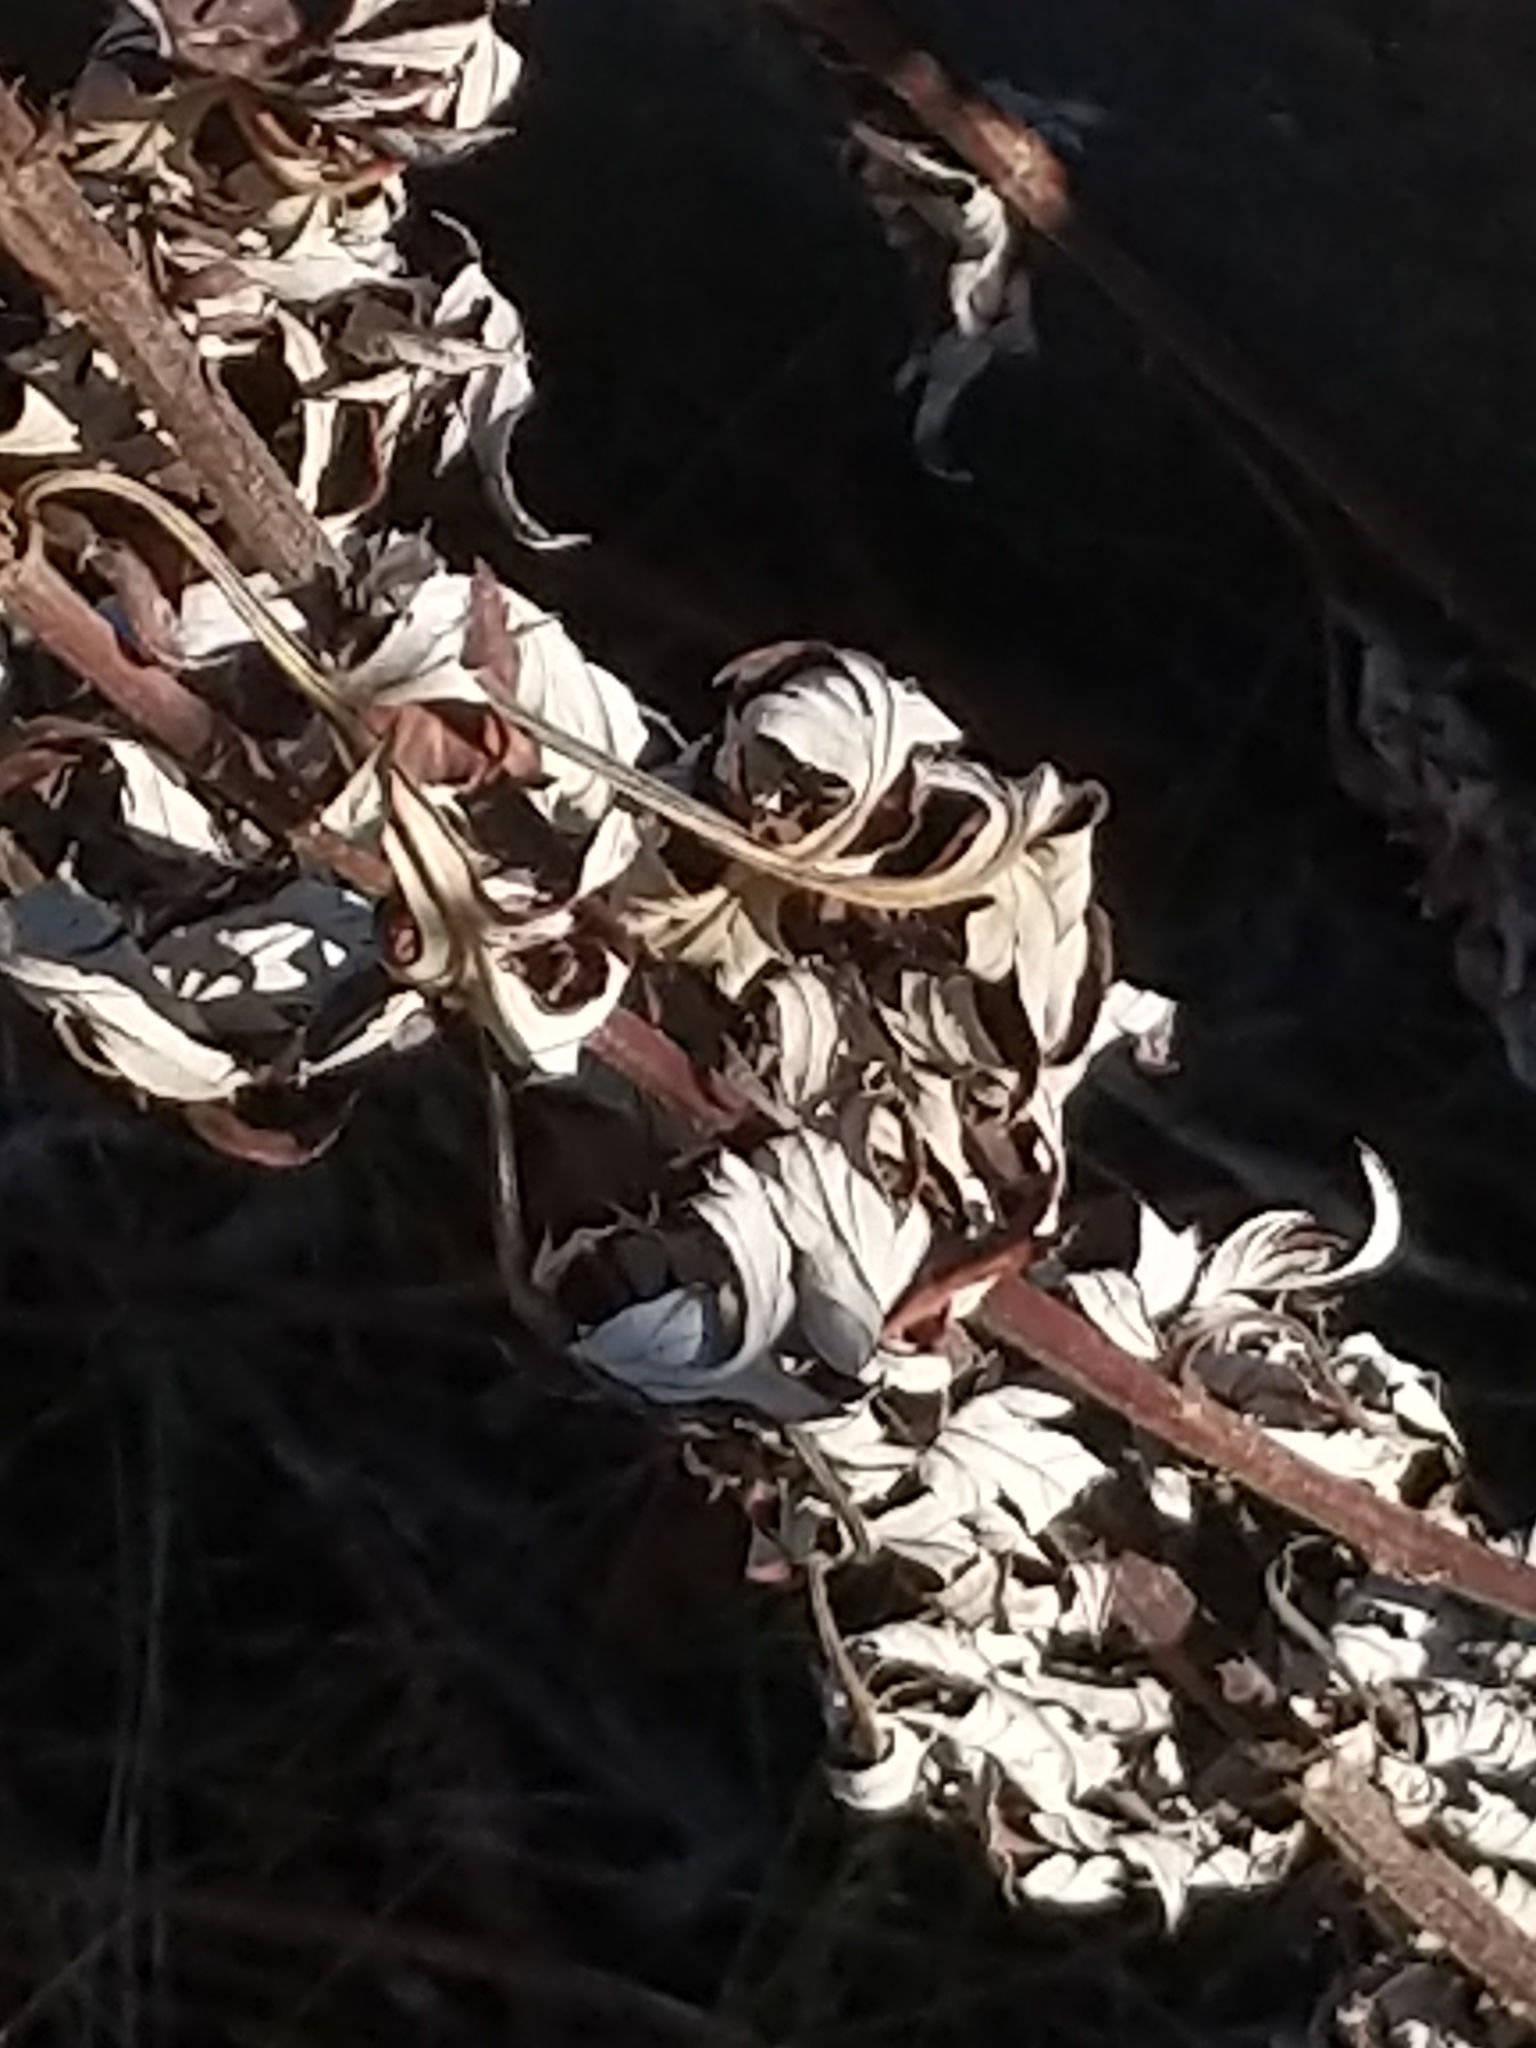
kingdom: Plantae
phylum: Tracheophyta
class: Magnoliopsida
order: Asterales
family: Asteraceae
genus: Artemisia
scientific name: Artemisia vulgaris
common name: Mugwort
